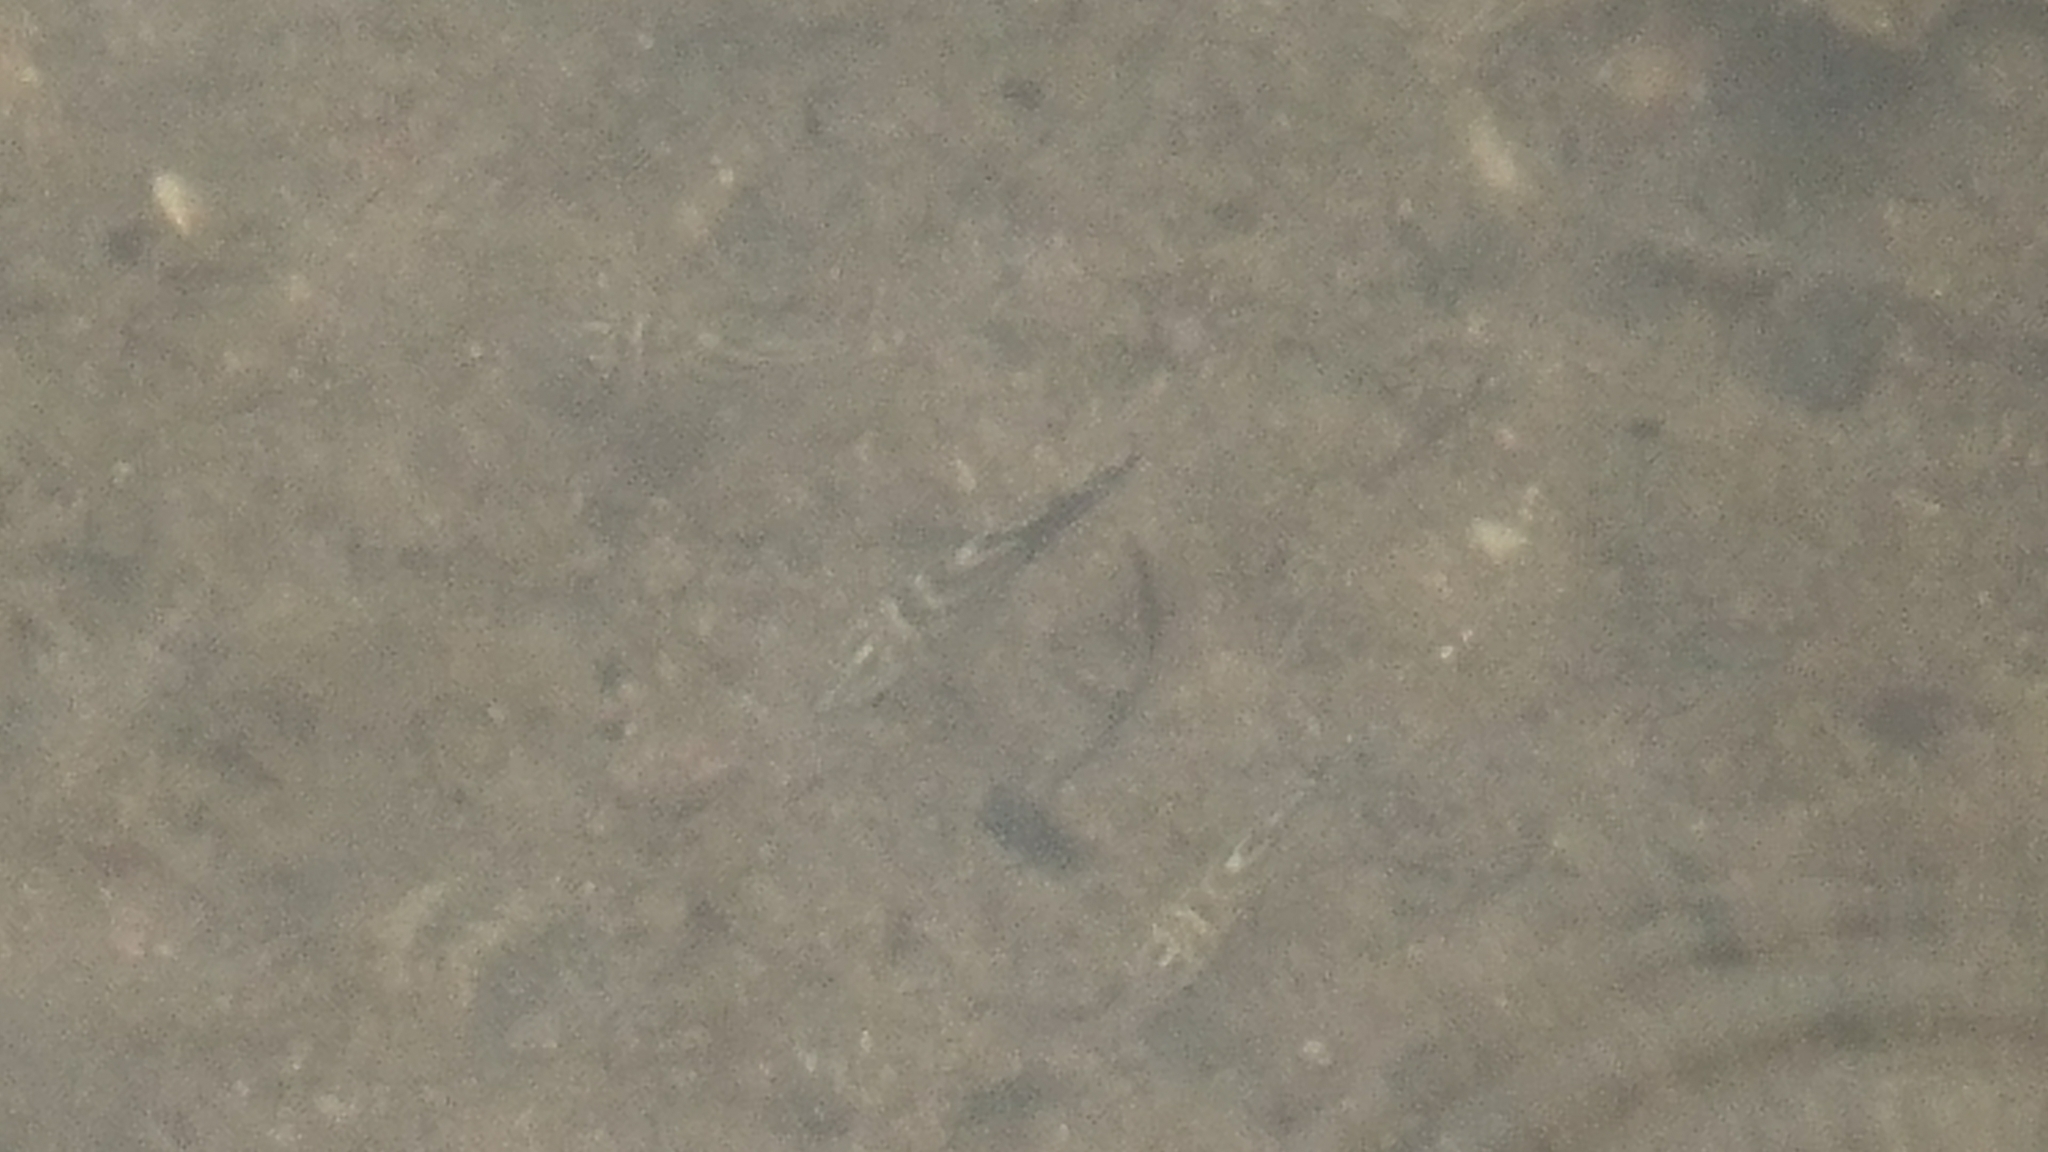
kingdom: Animalia
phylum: Chordata
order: Perciformes
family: Kyphosidae
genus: Microcanthus
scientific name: Microcanthus joyceae
